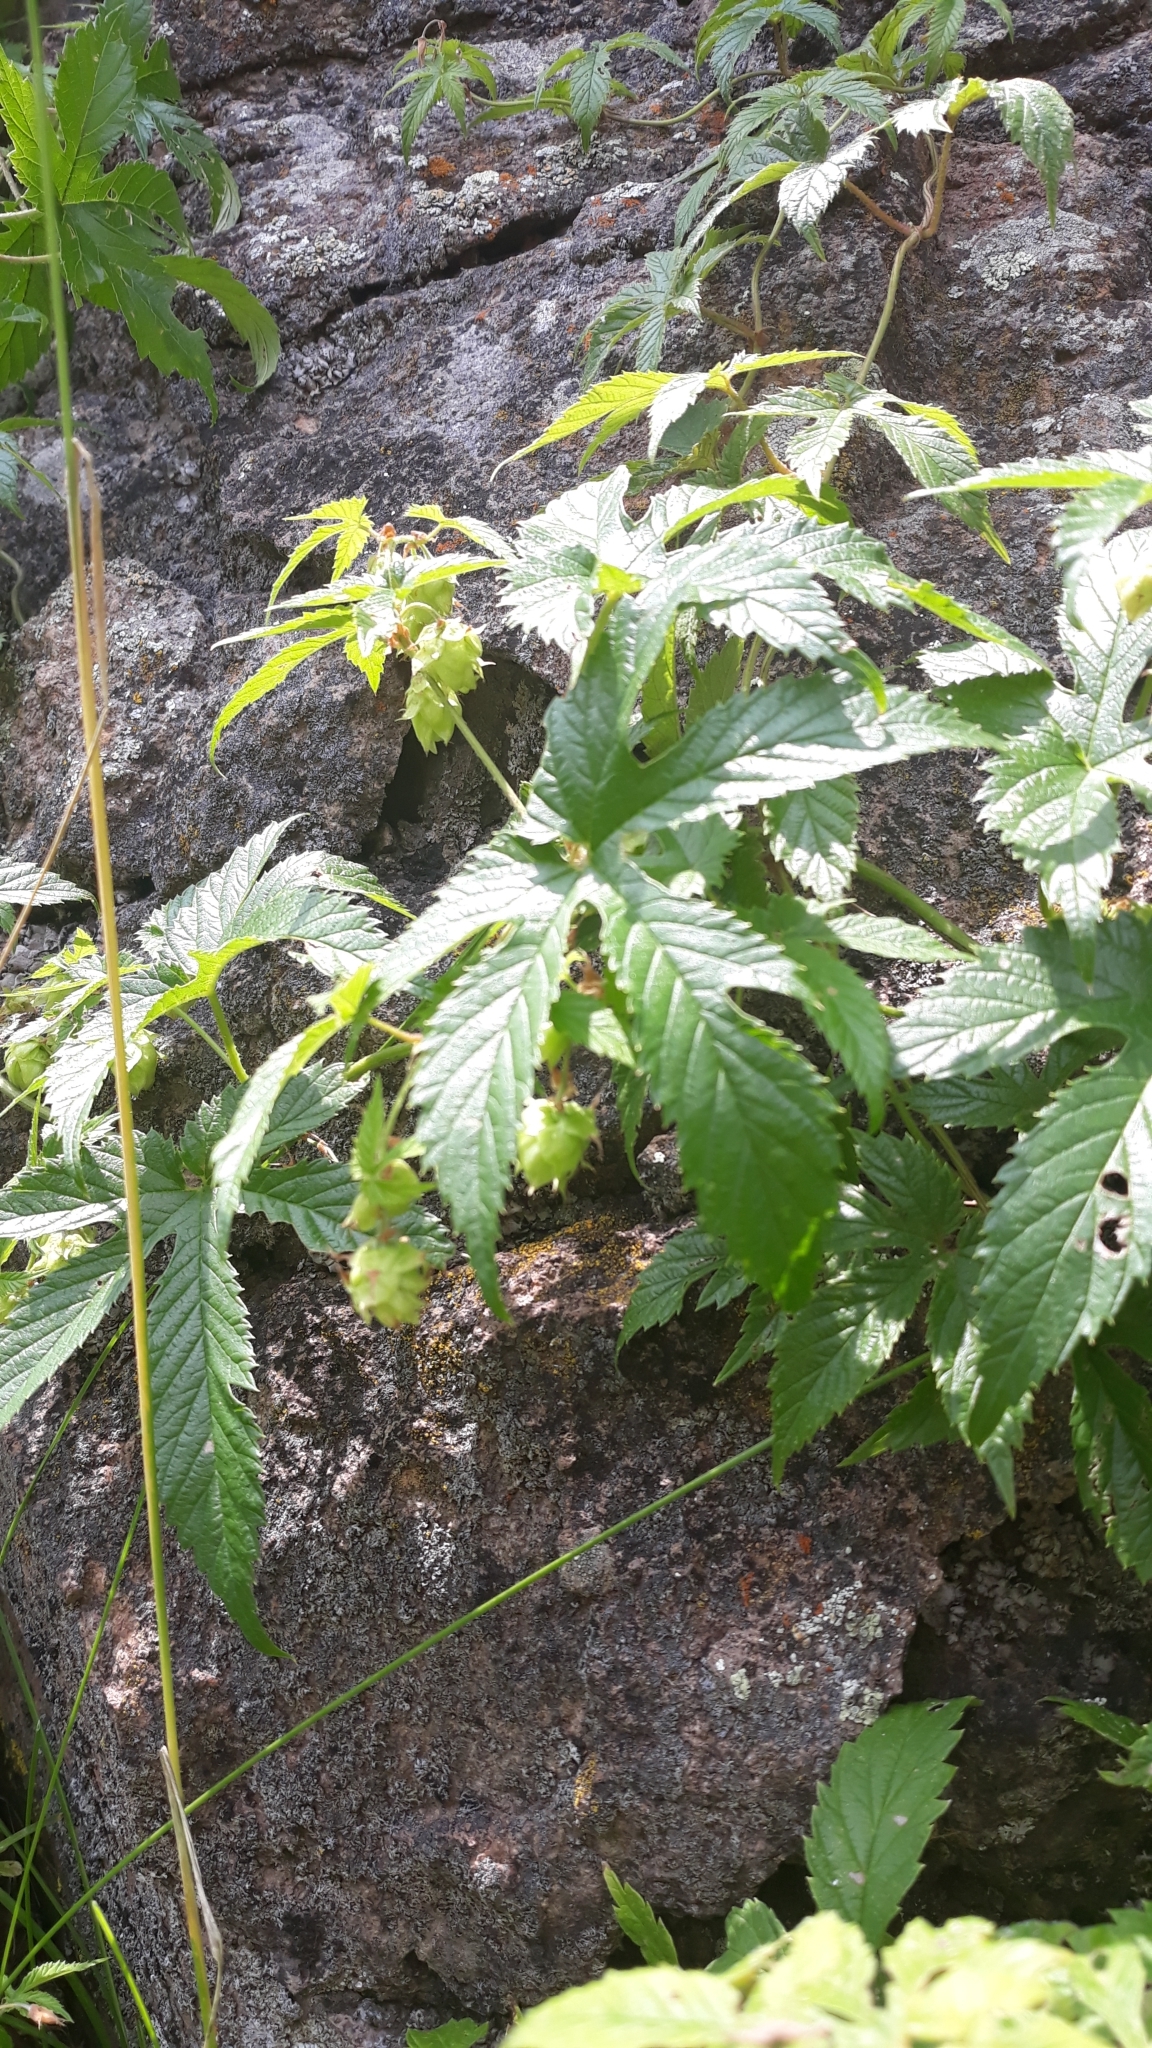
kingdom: Plantae
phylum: Tracheophyta
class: Magnoliopsida
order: Rosales
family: Cannabaceae
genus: Humulus
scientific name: Humulus neomexicanus
